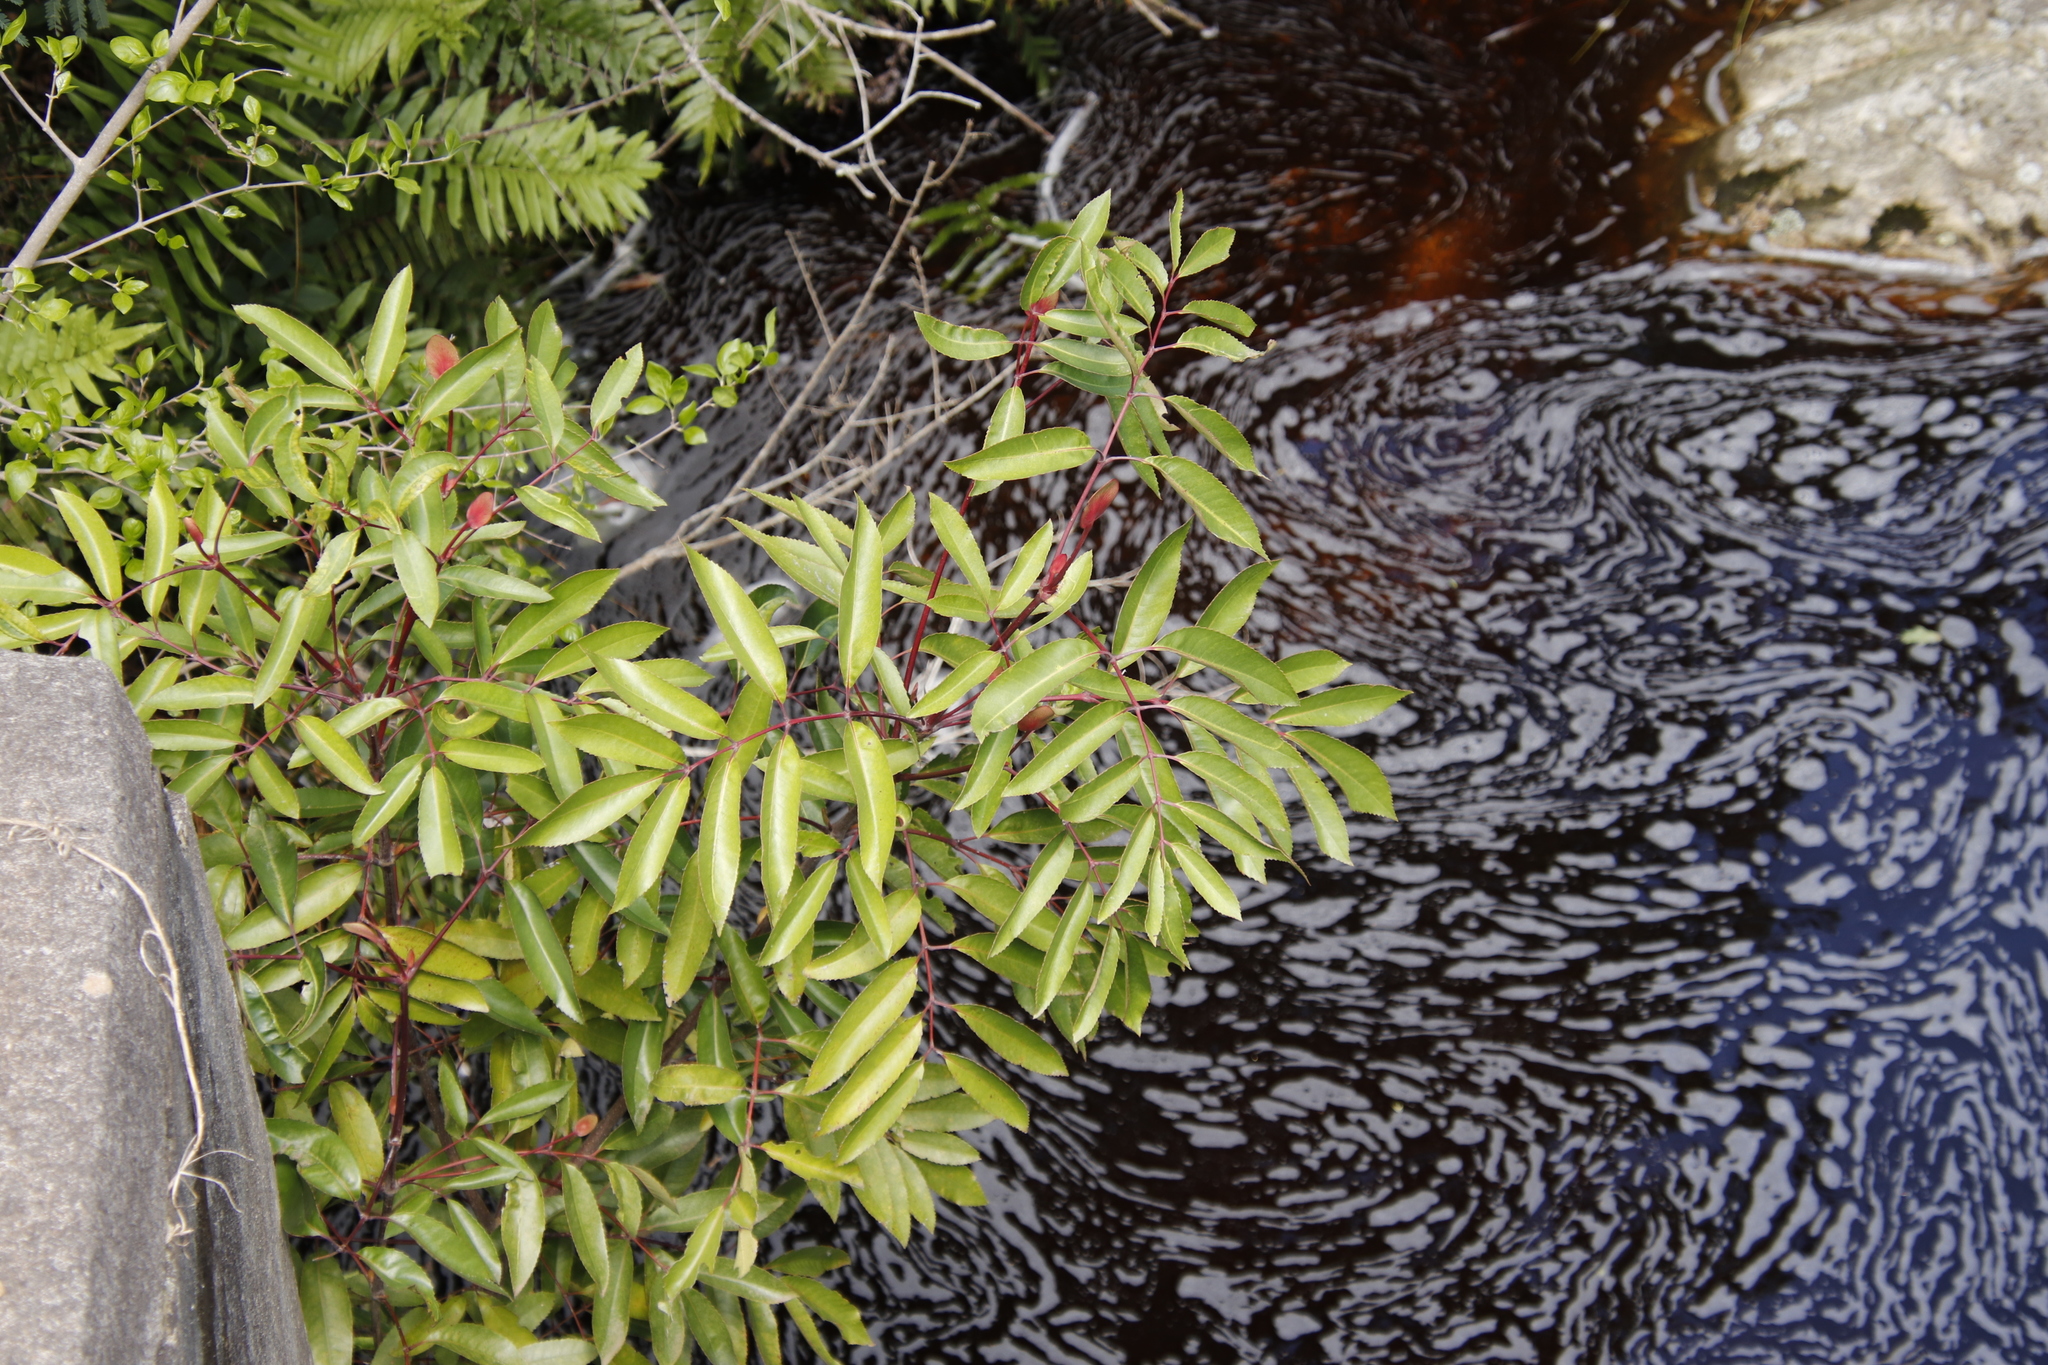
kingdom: Plantae
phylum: Tracheophyta
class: Magnoliopsida
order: Oxalidales
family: Cunoniaceae
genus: Cunonia
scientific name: Cunonia capensis
